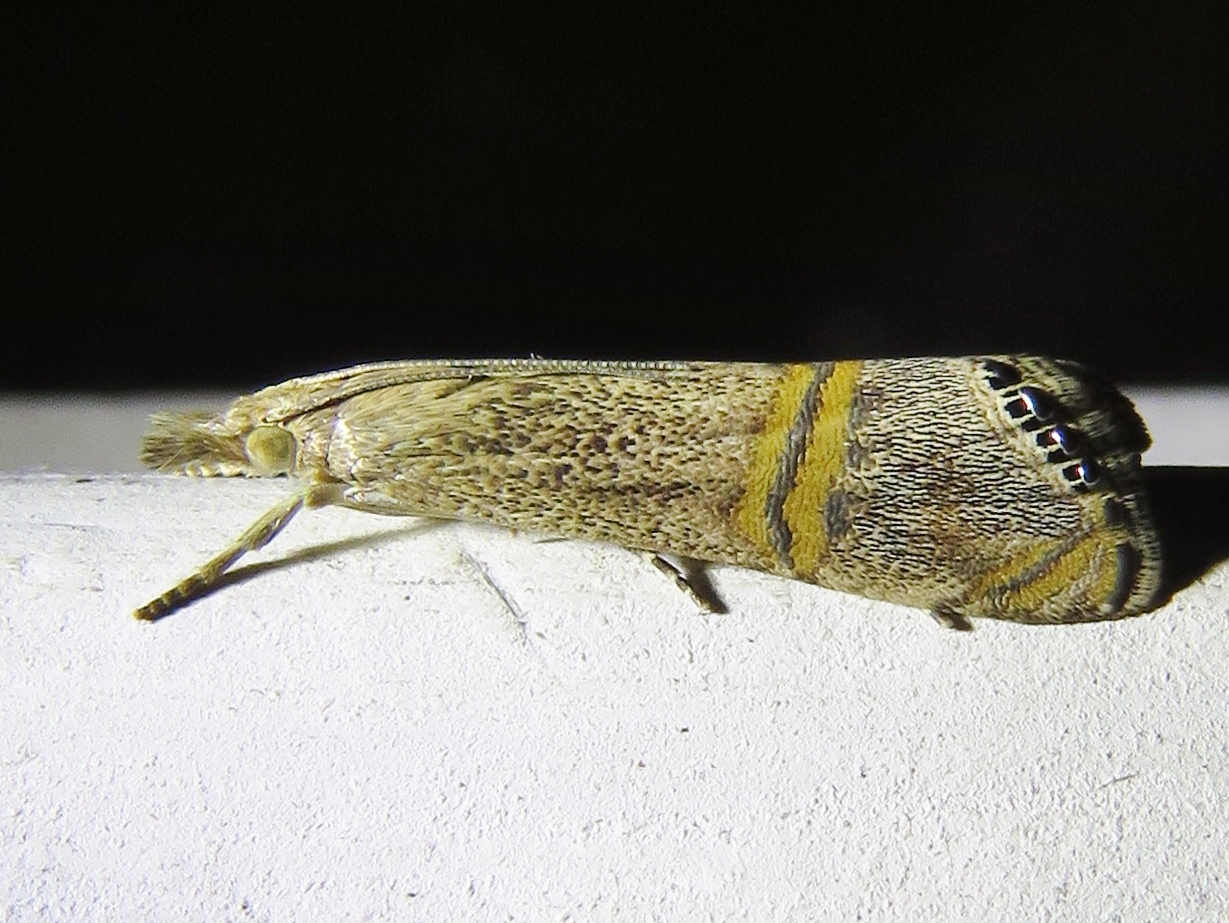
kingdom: Animalia
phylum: Arthropoda
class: Insecta
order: Lepidoptera
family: Crambidae
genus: Euchromius
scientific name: Euchromius ocellea
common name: Necklace veneer moth
